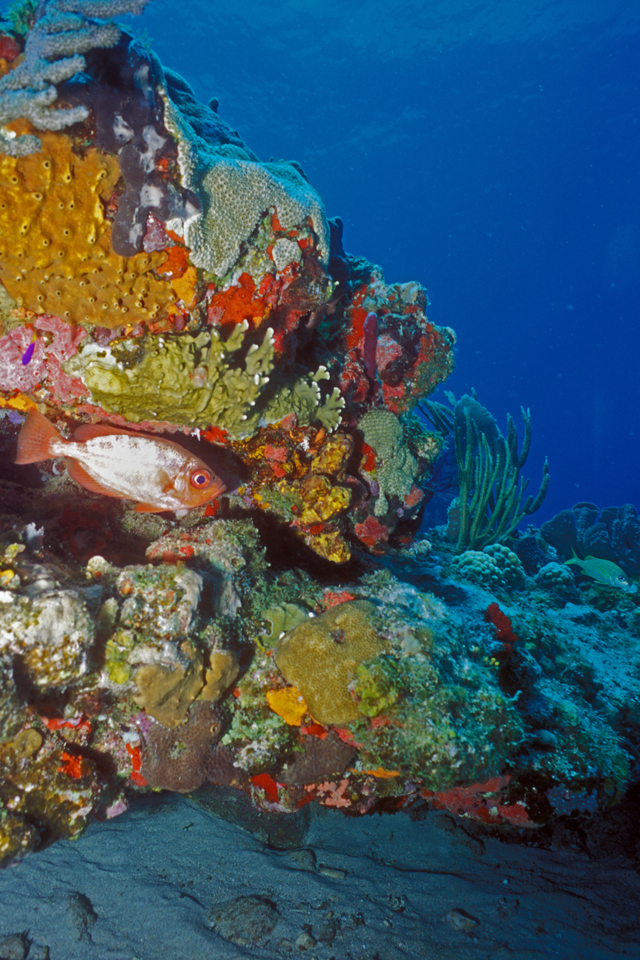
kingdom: Animalia
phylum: Chordata
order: Perciformes
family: Priacanthidae
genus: Heteropriacanthus
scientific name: Heteropriacanthus cruentatus
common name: Glasseye
